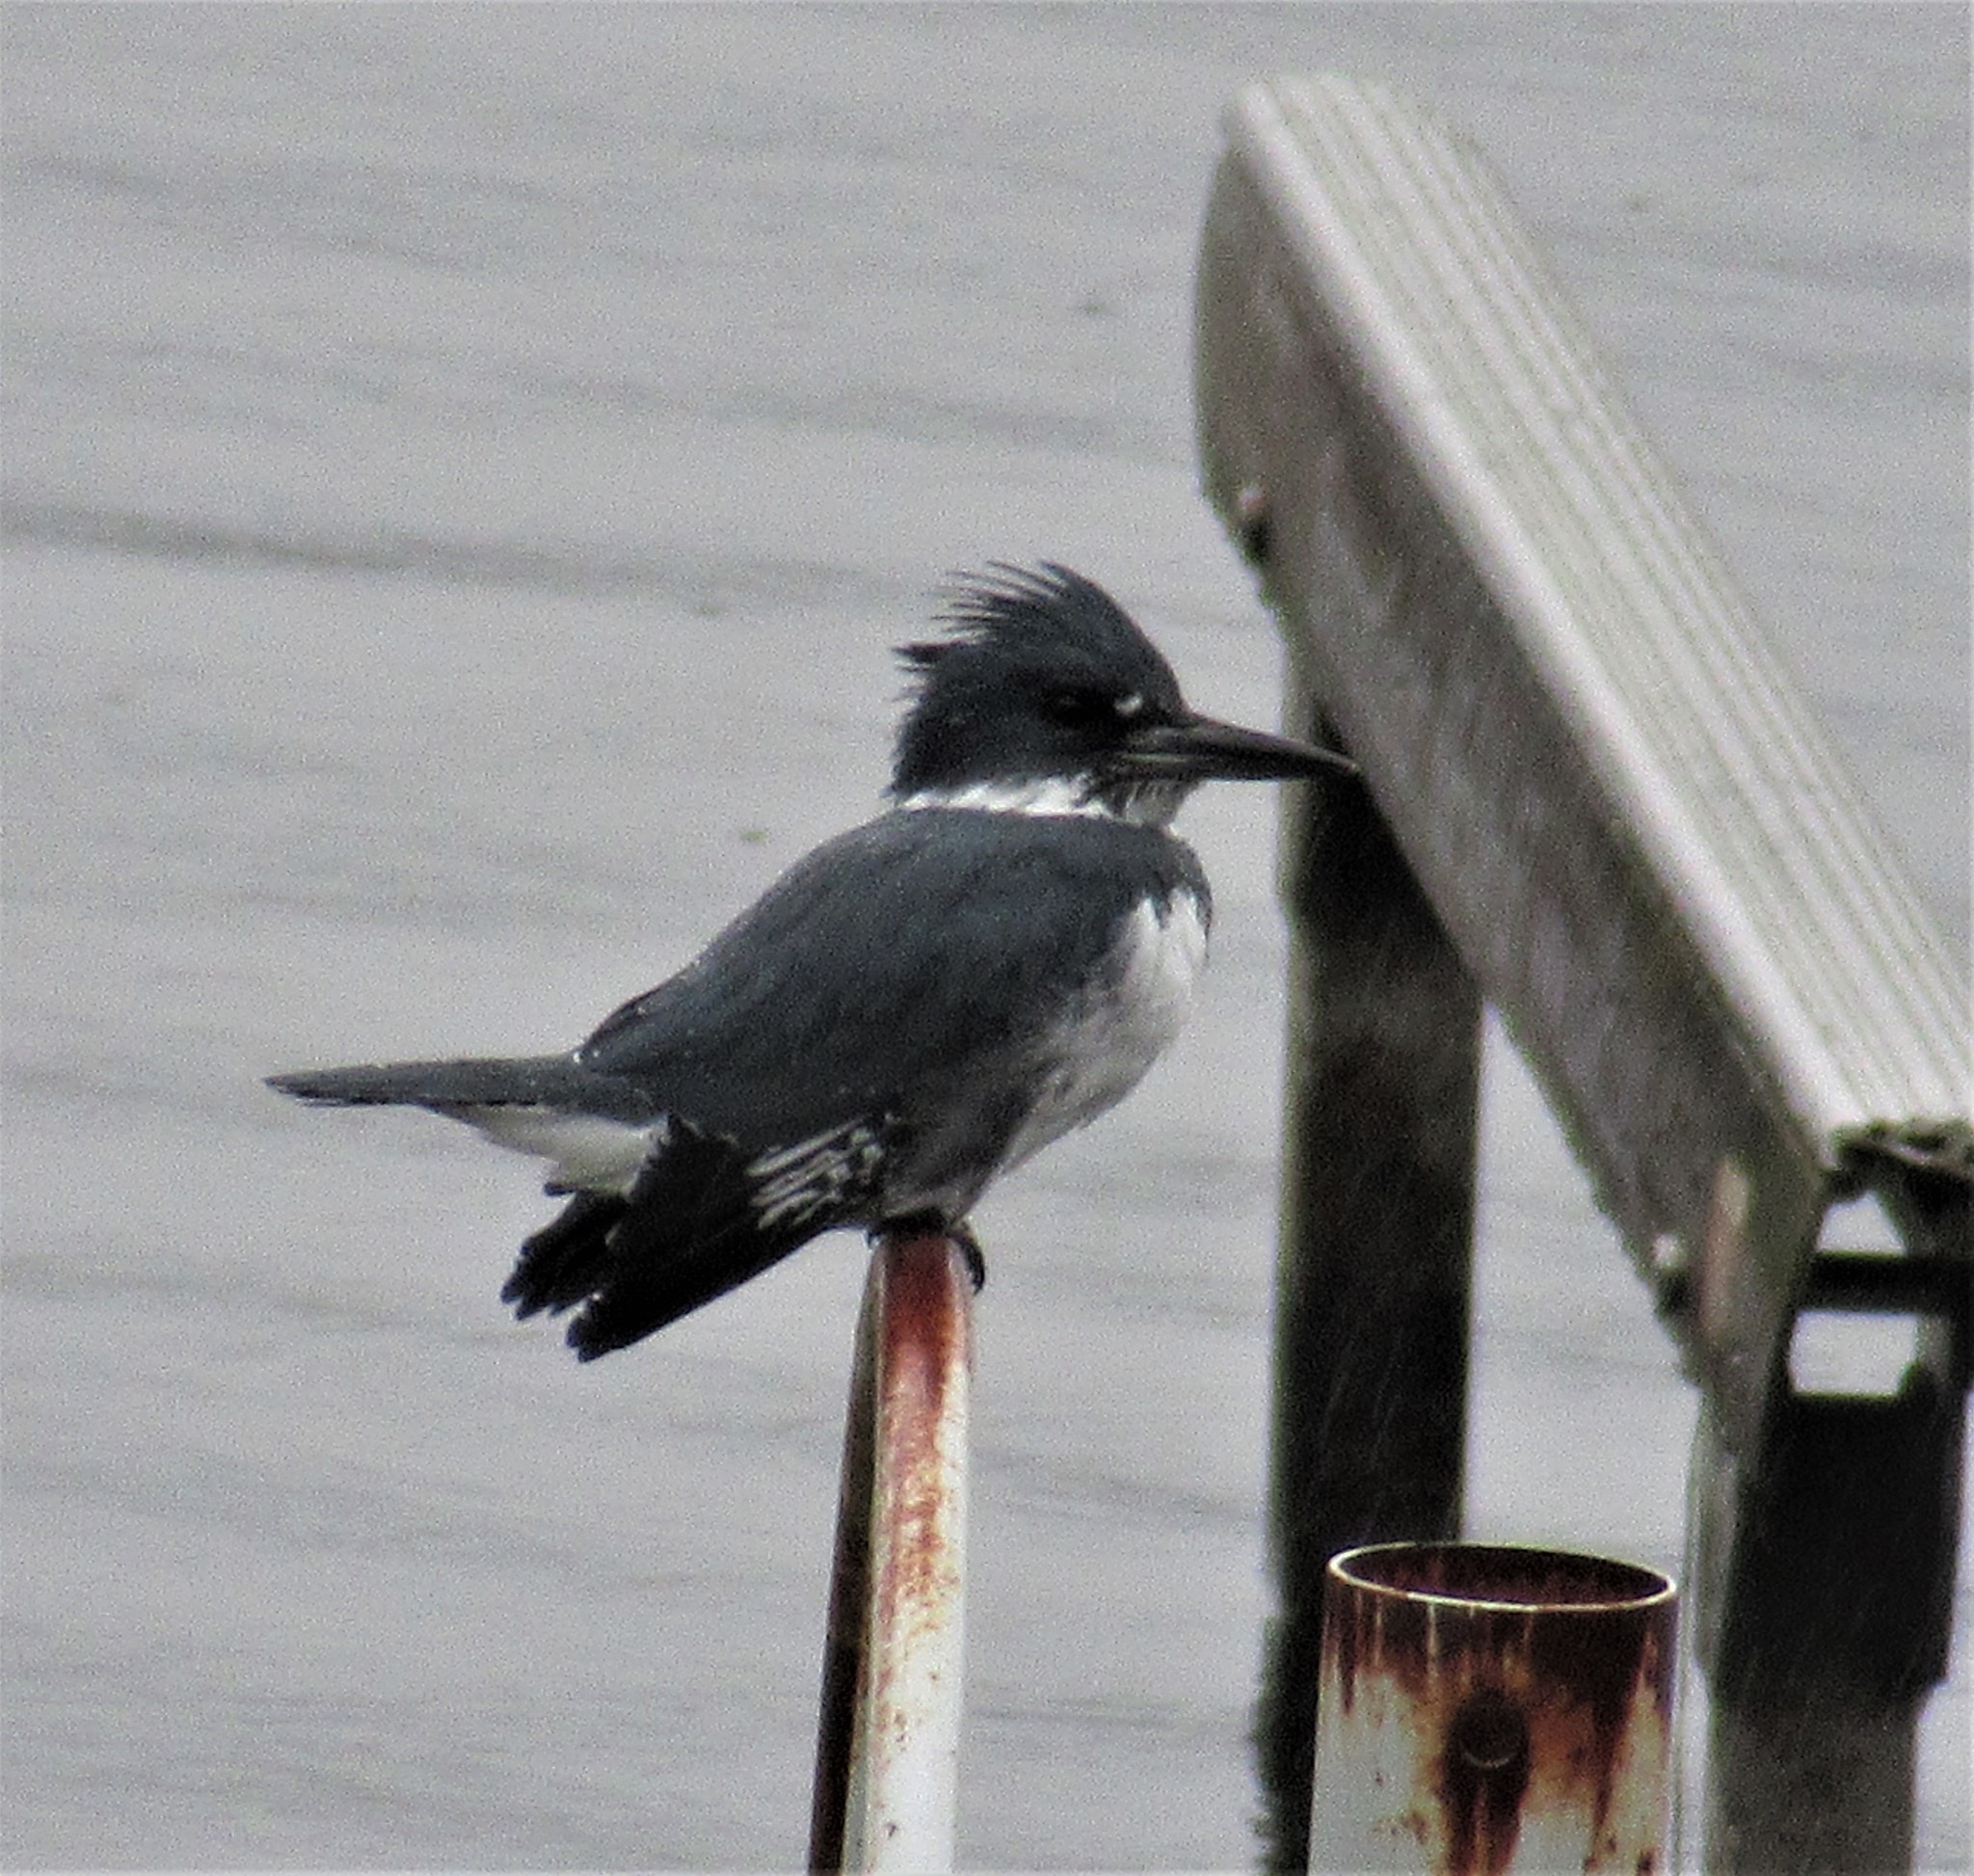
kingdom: Animalia
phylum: Chordata
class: Aves
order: Coraciiformes
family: Alcedinidae
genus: Megaceryle
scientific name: Megaceryle alcyon
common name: Belted kingfisher
